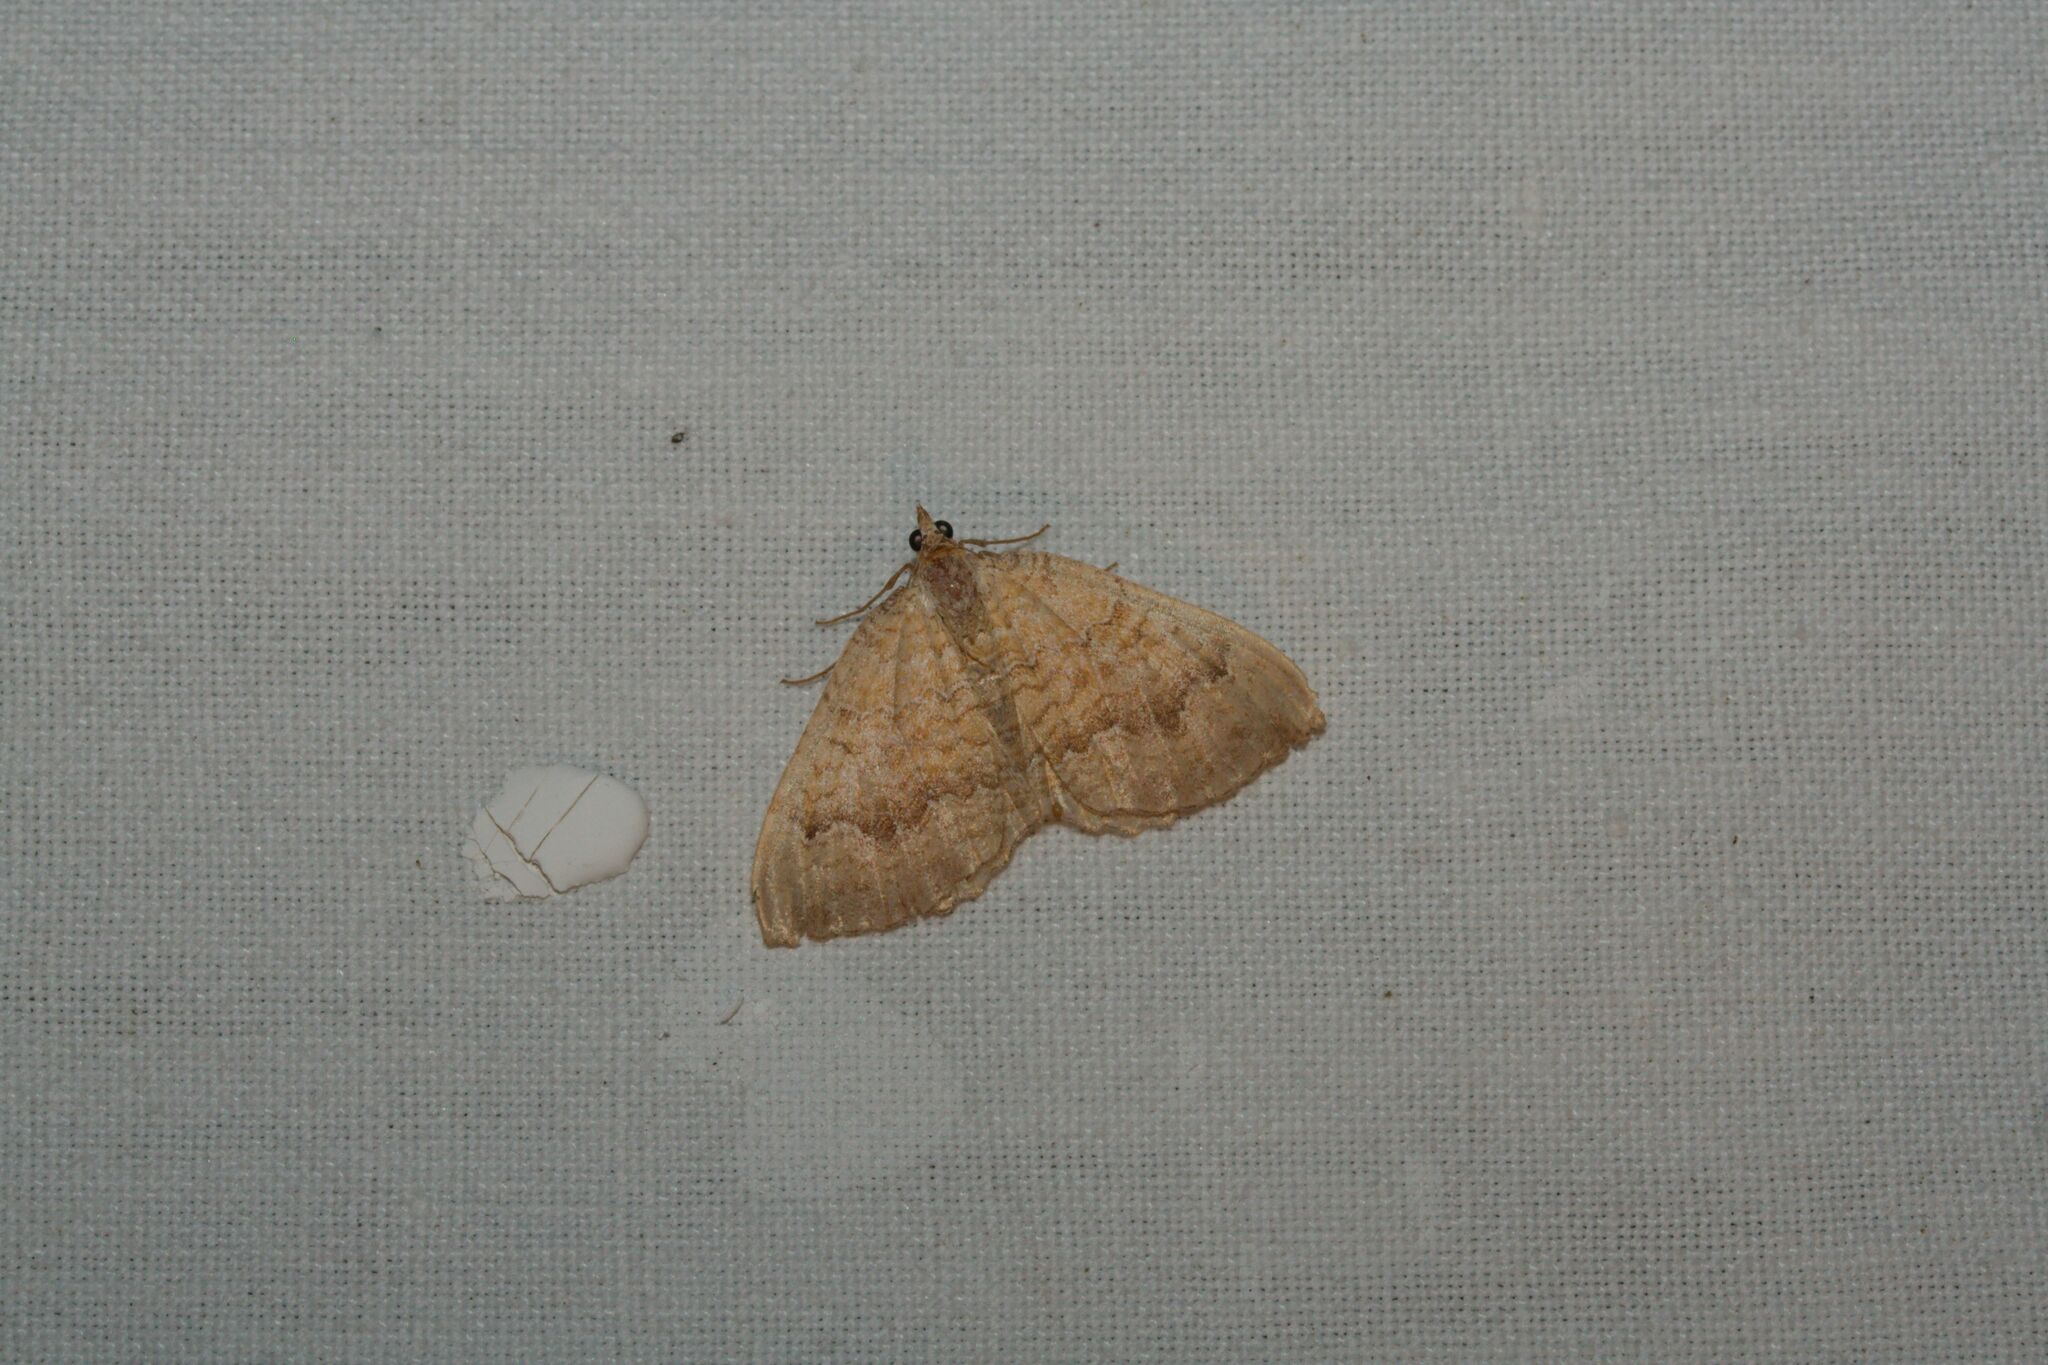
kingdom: Animalia
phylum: Arthropoda
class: Insecta
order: Lepidoptera
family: Geometridae
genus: Camptogramma
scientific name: Camptogramma bilineata
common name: Yellow shell
